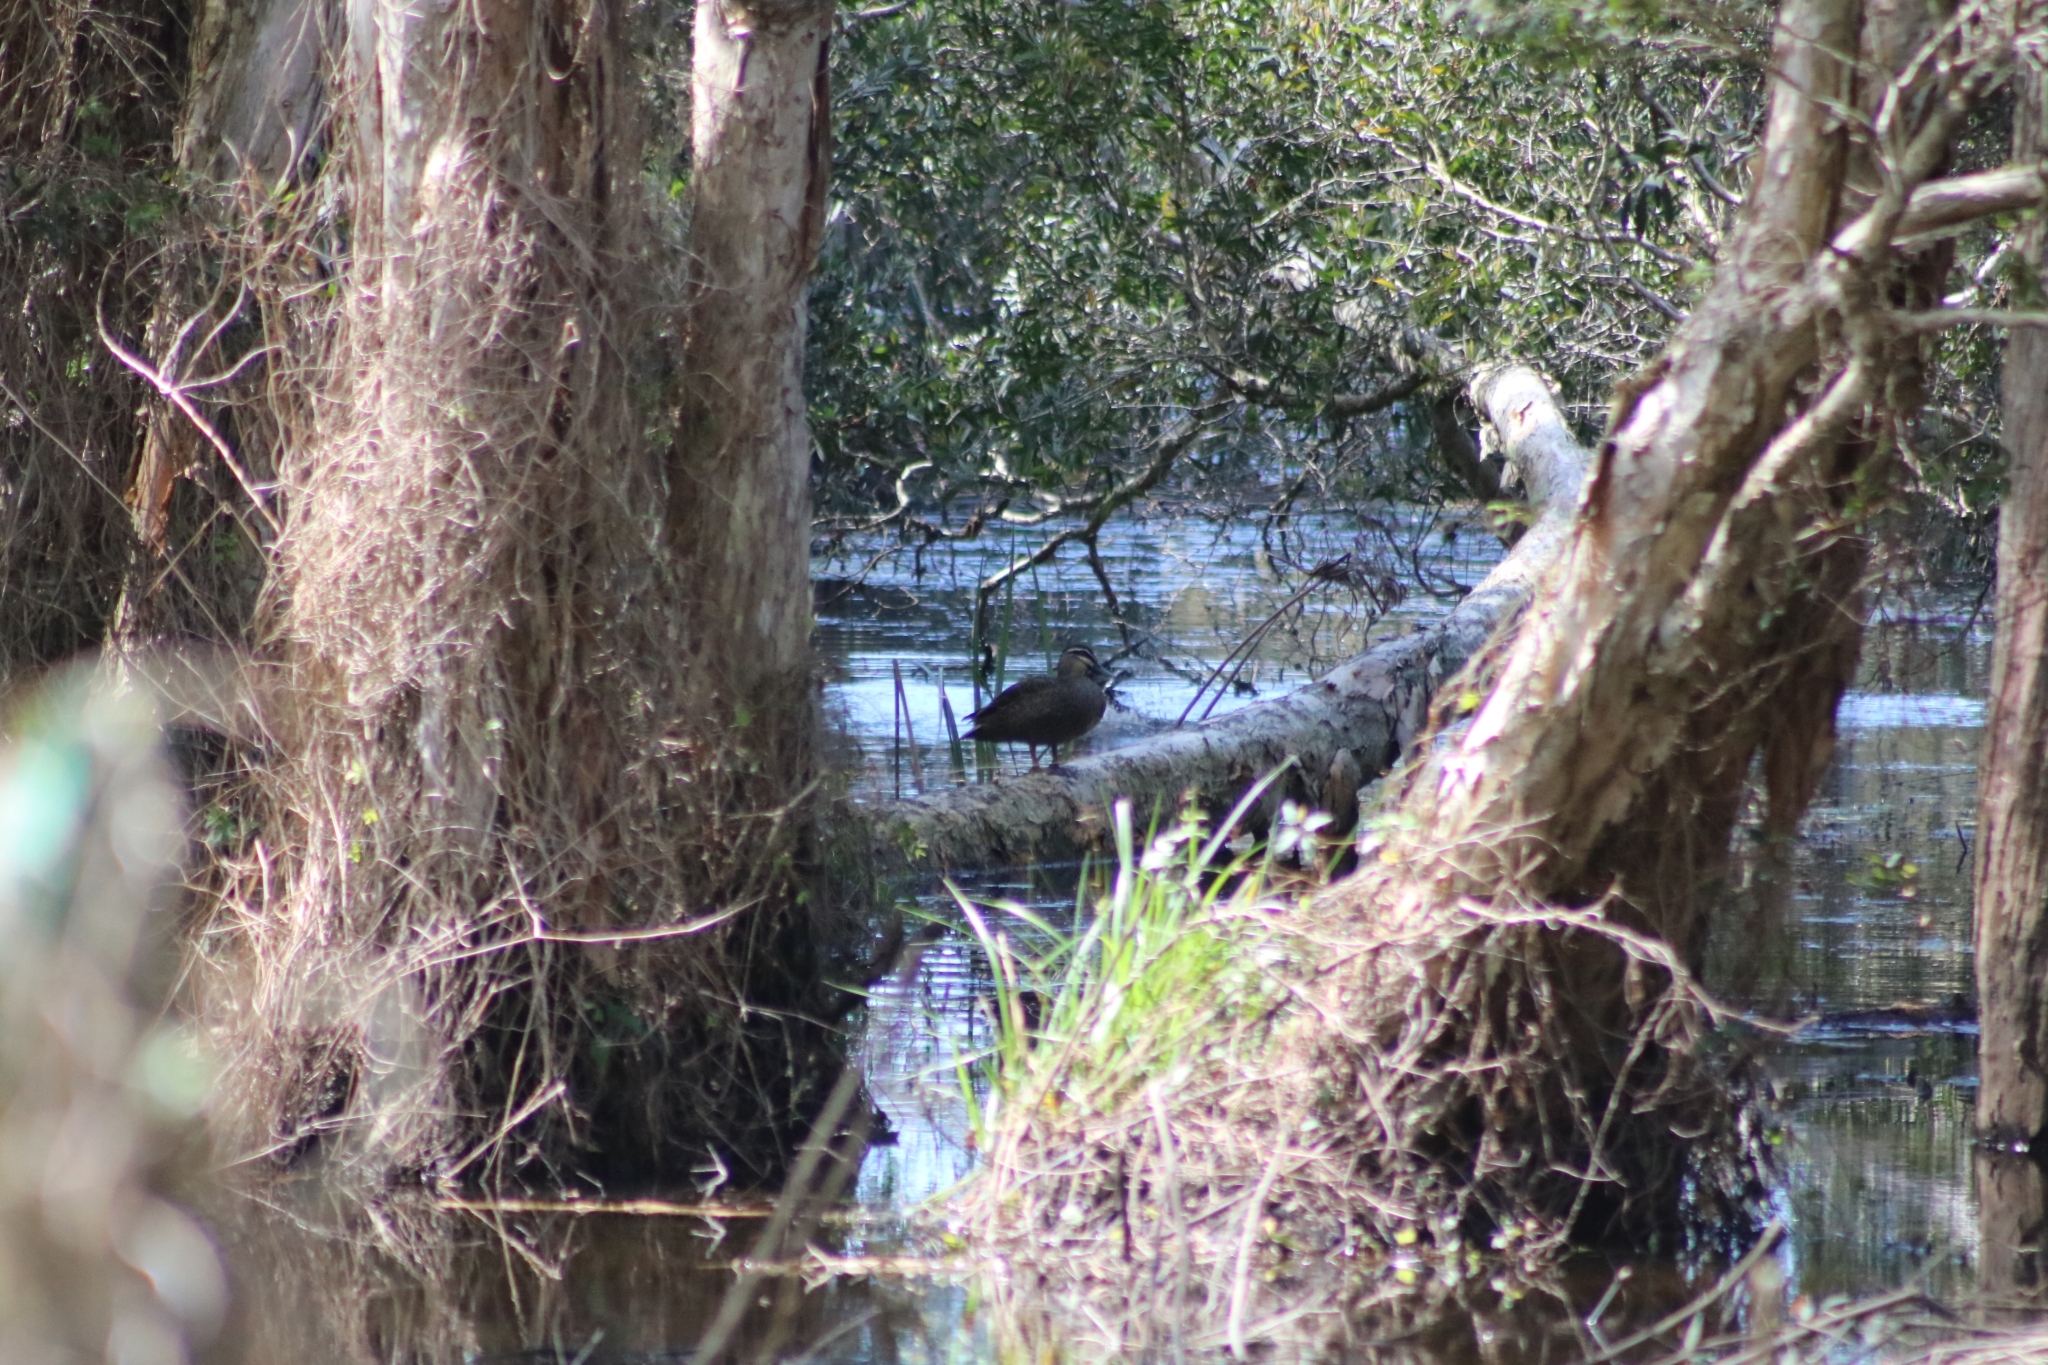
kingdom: Animalia
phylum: Chordata
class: Aves
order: Anseriformes
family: Anatidae
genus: Anas
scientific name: Anas superciliosa
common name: Pacific black duck
